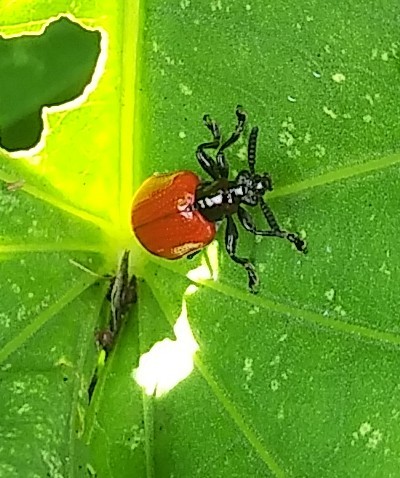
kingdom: Animalia
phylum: Arthropoda
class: Insecta
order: Coleoptera
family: Chrysomelidae
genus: Lilioceris
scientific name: Lilioceris cheni
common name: Leaf beetle
